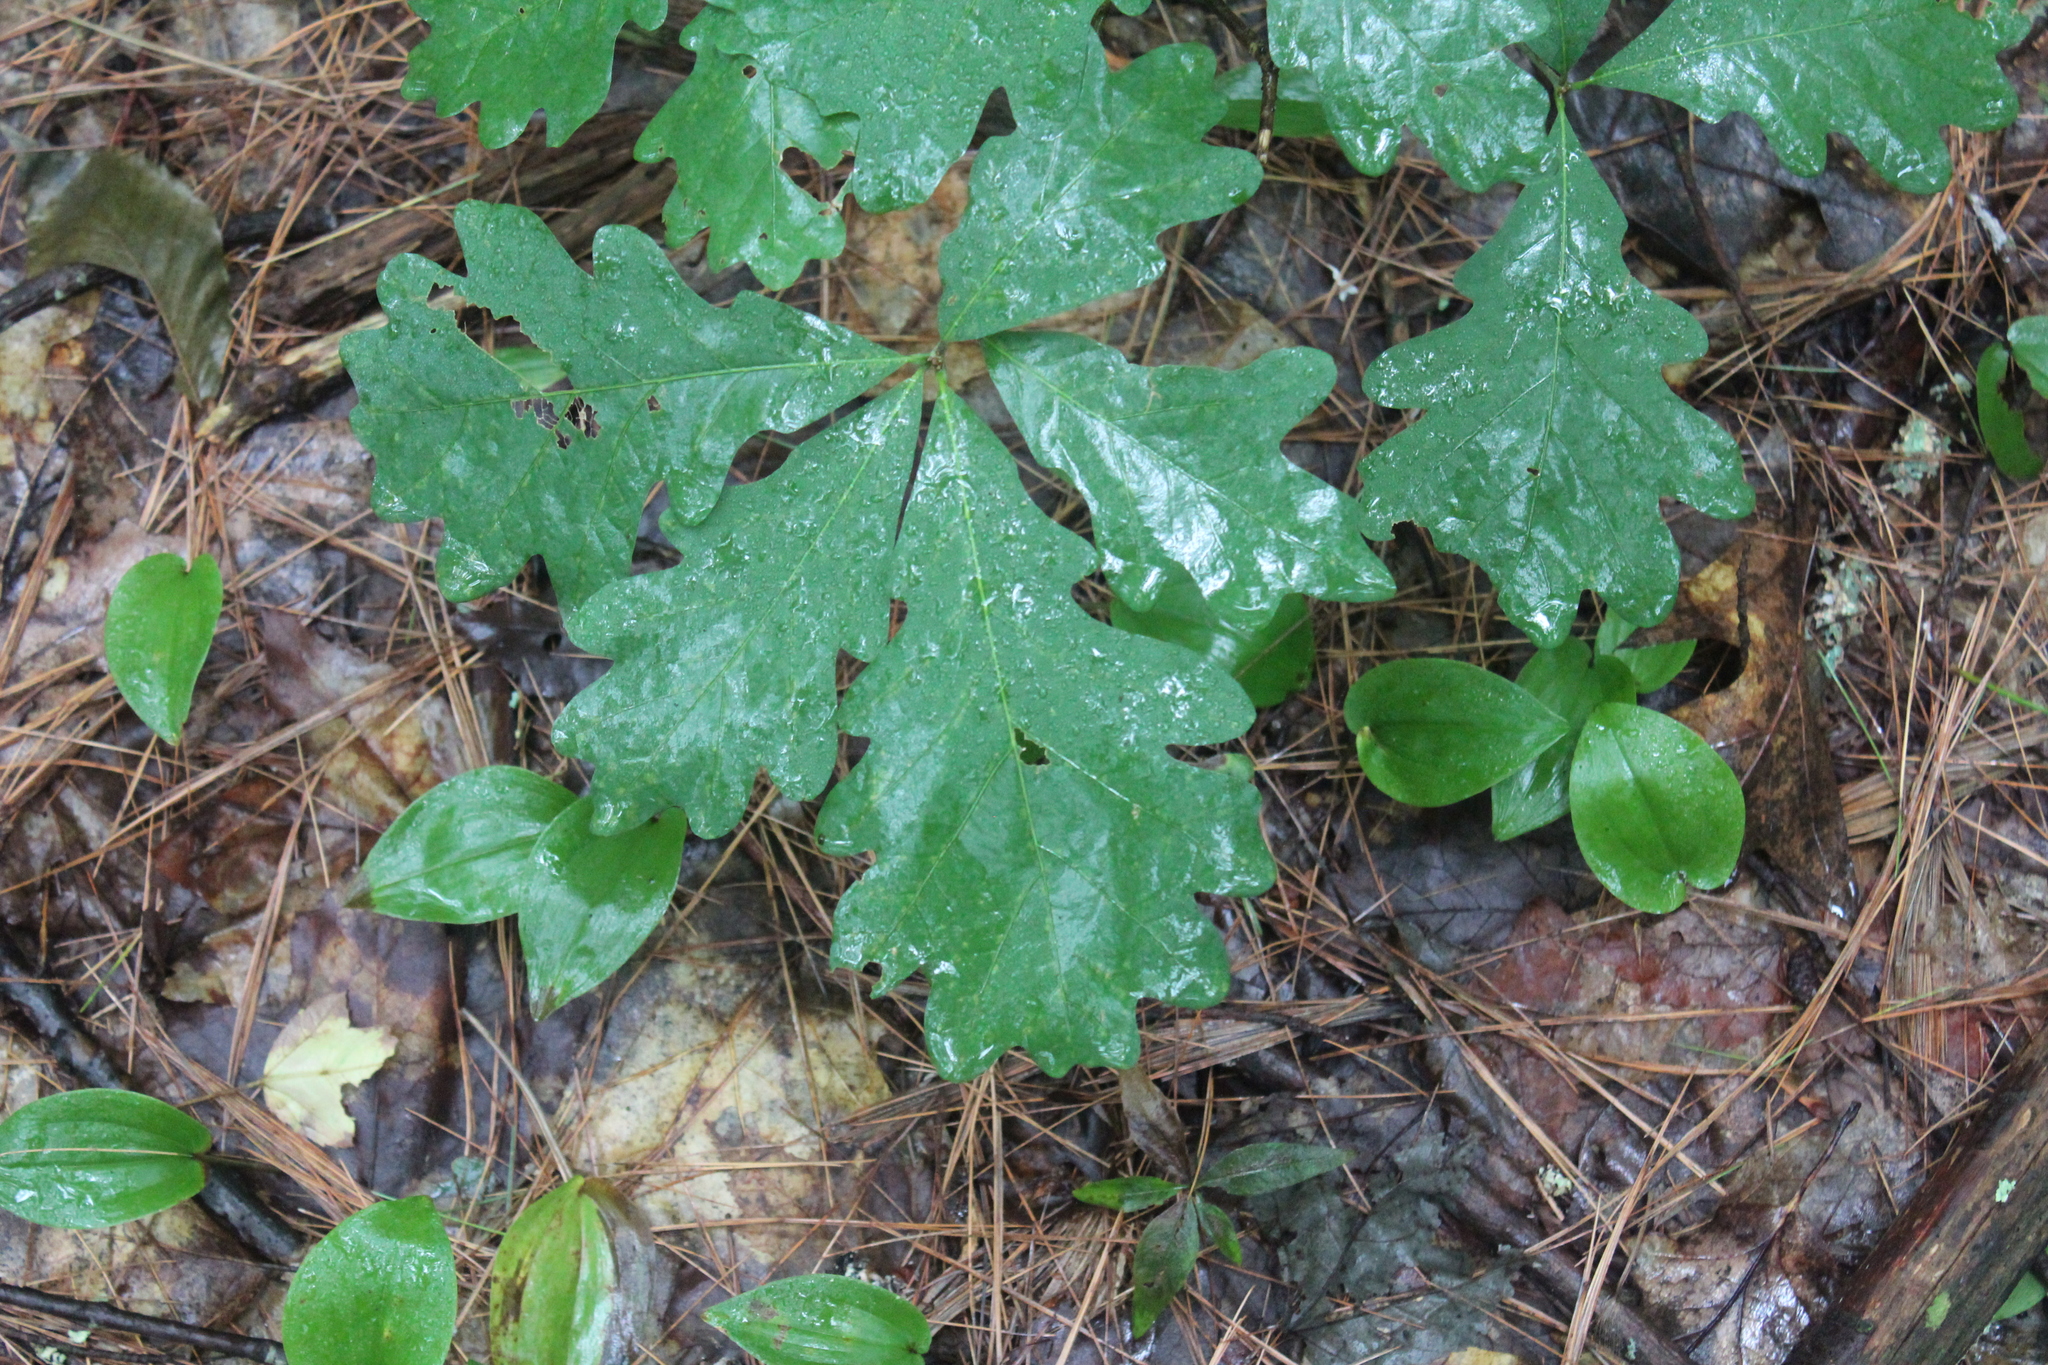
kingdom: Plantae
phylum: Tracheophyta
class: Magnoliopsida
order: Fagales
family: Fagaceae
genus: Quercus
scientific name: Quercus alba
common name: White oak
